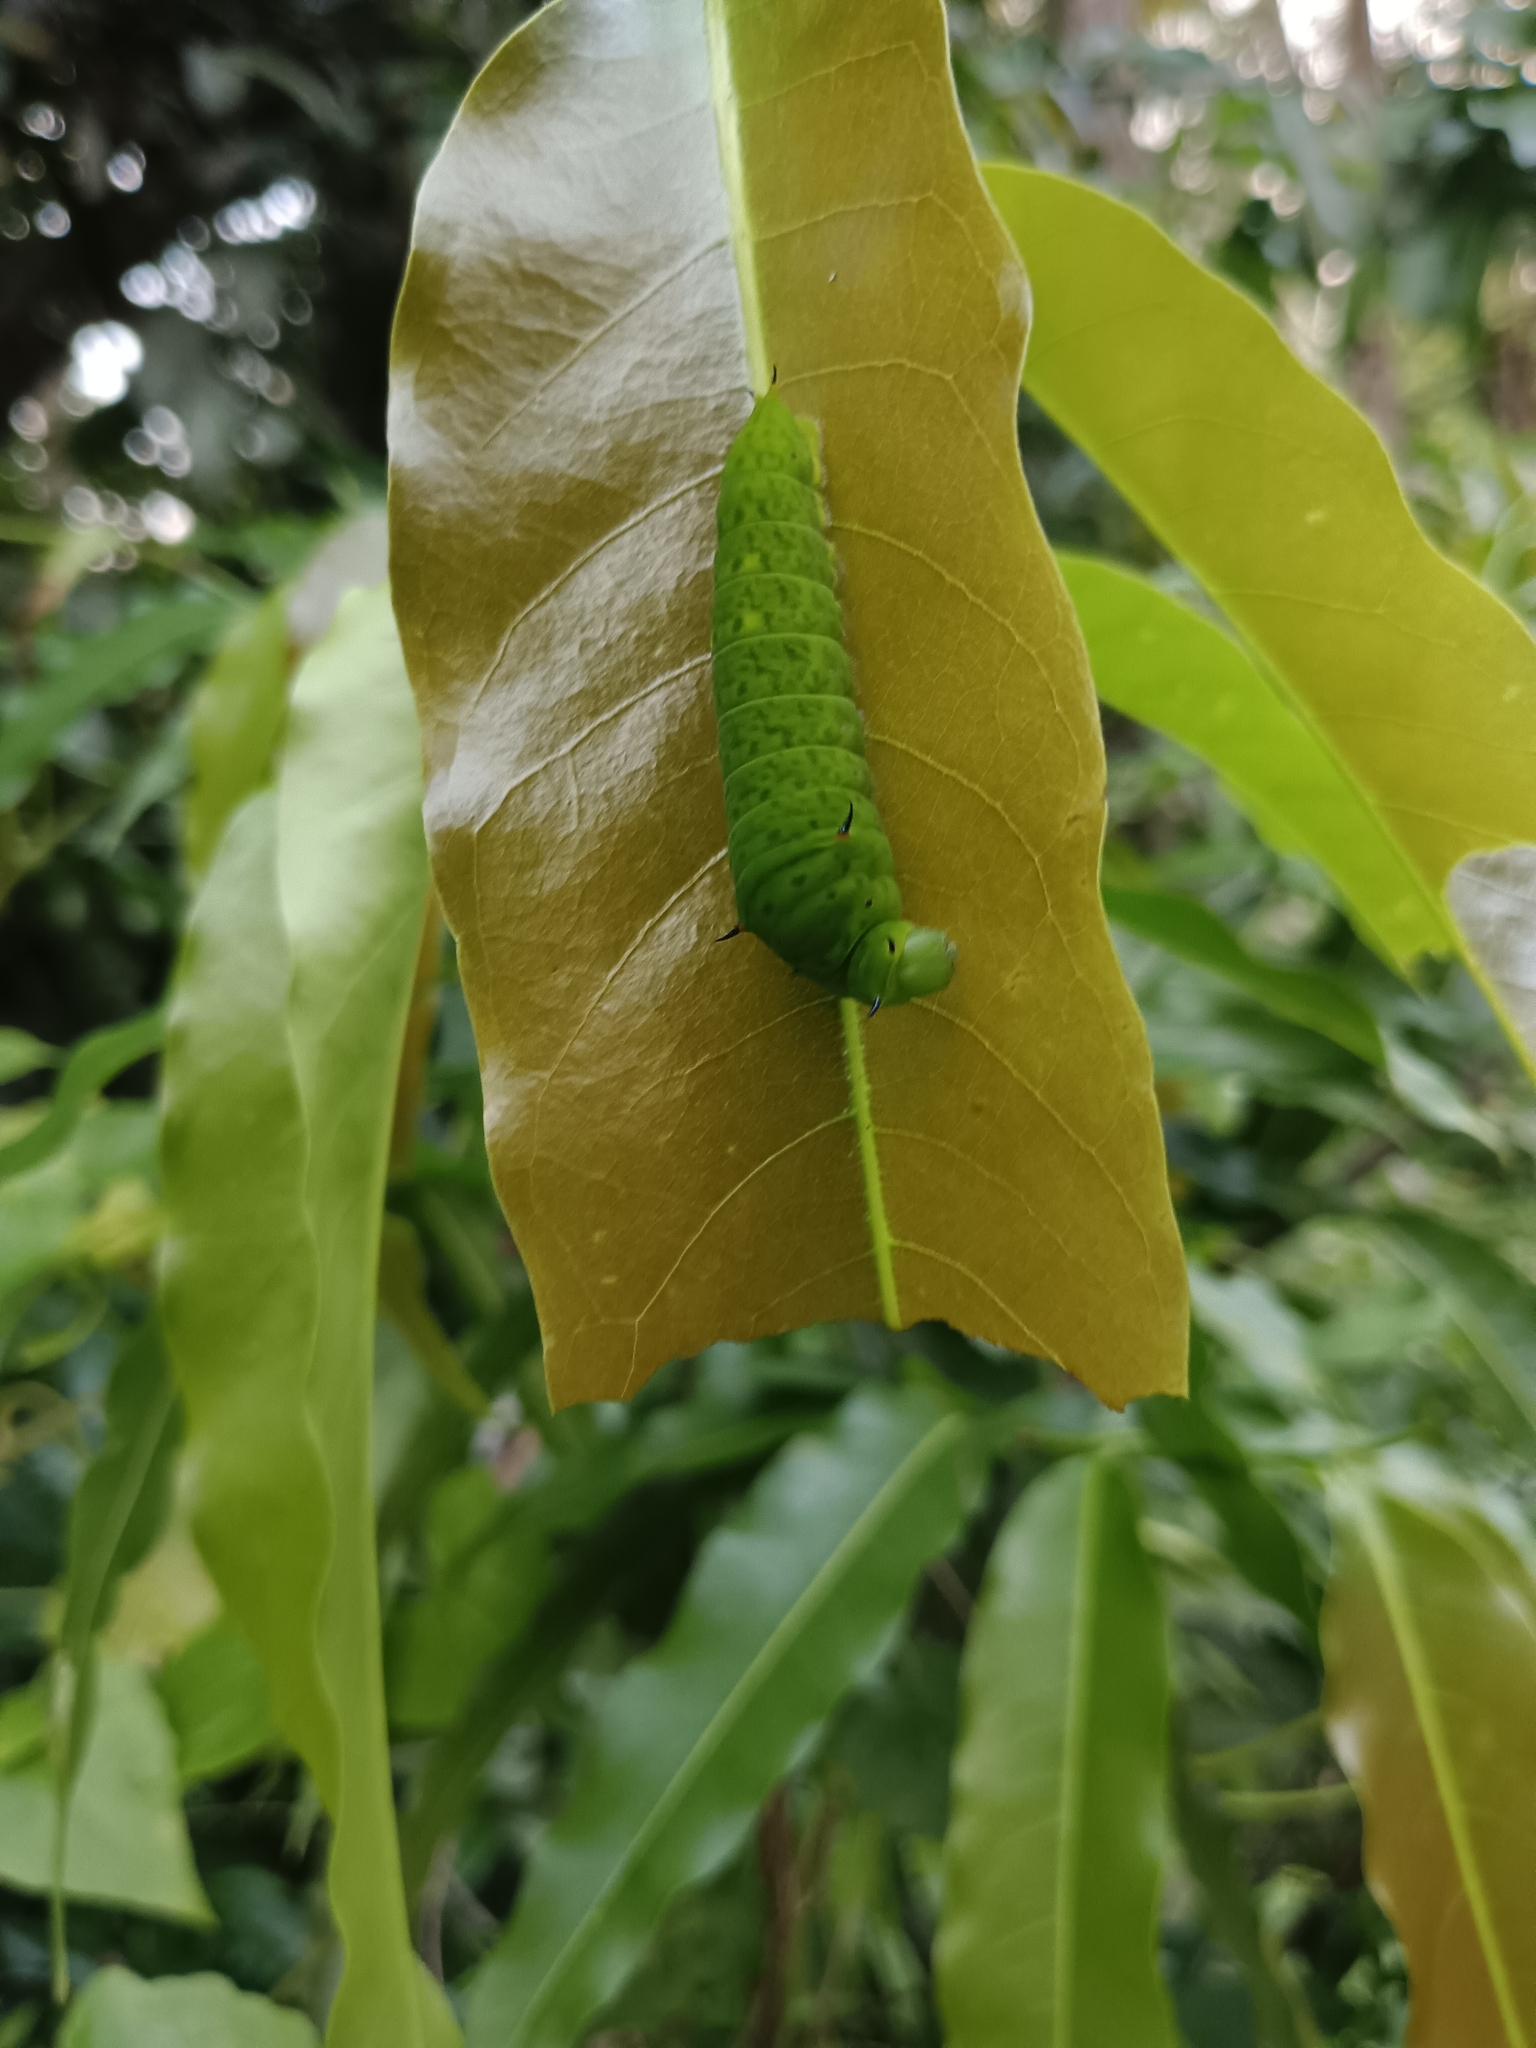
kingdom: Animalia
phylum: Arthropoda
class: Insecta
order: Lepidoptera
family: Papilionidae
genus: Graphium
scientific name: Graphium agamemnon
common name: Tailed jay
